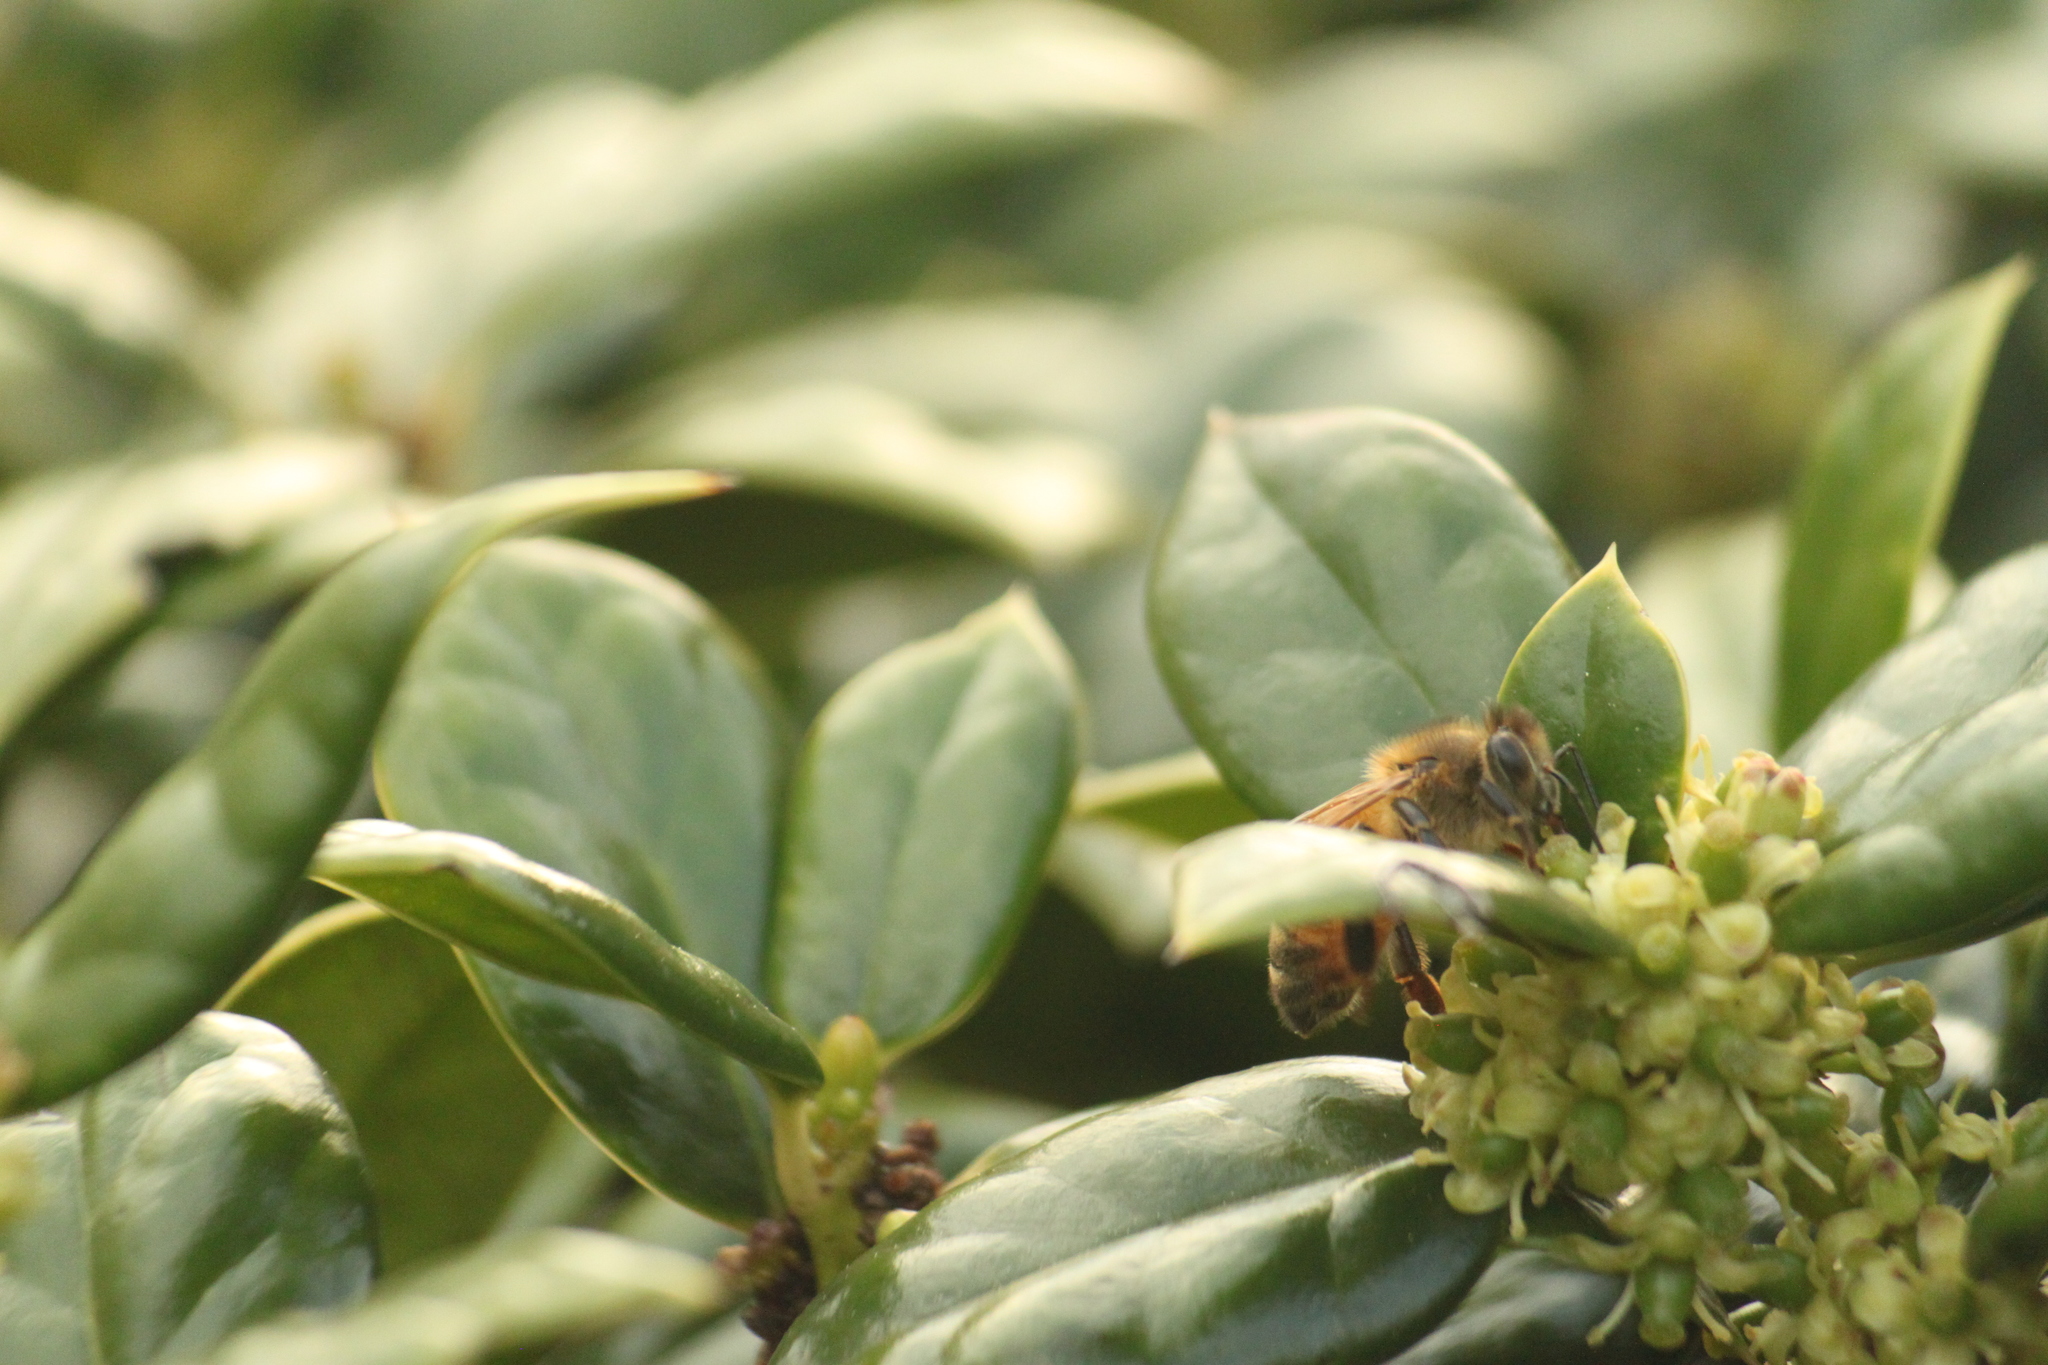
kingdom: Animalia
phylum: Arthropoda
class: Insecta
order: Hymenoptera
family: Apidae
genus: Apis
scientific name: Apis mellifera
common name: Honey bee
